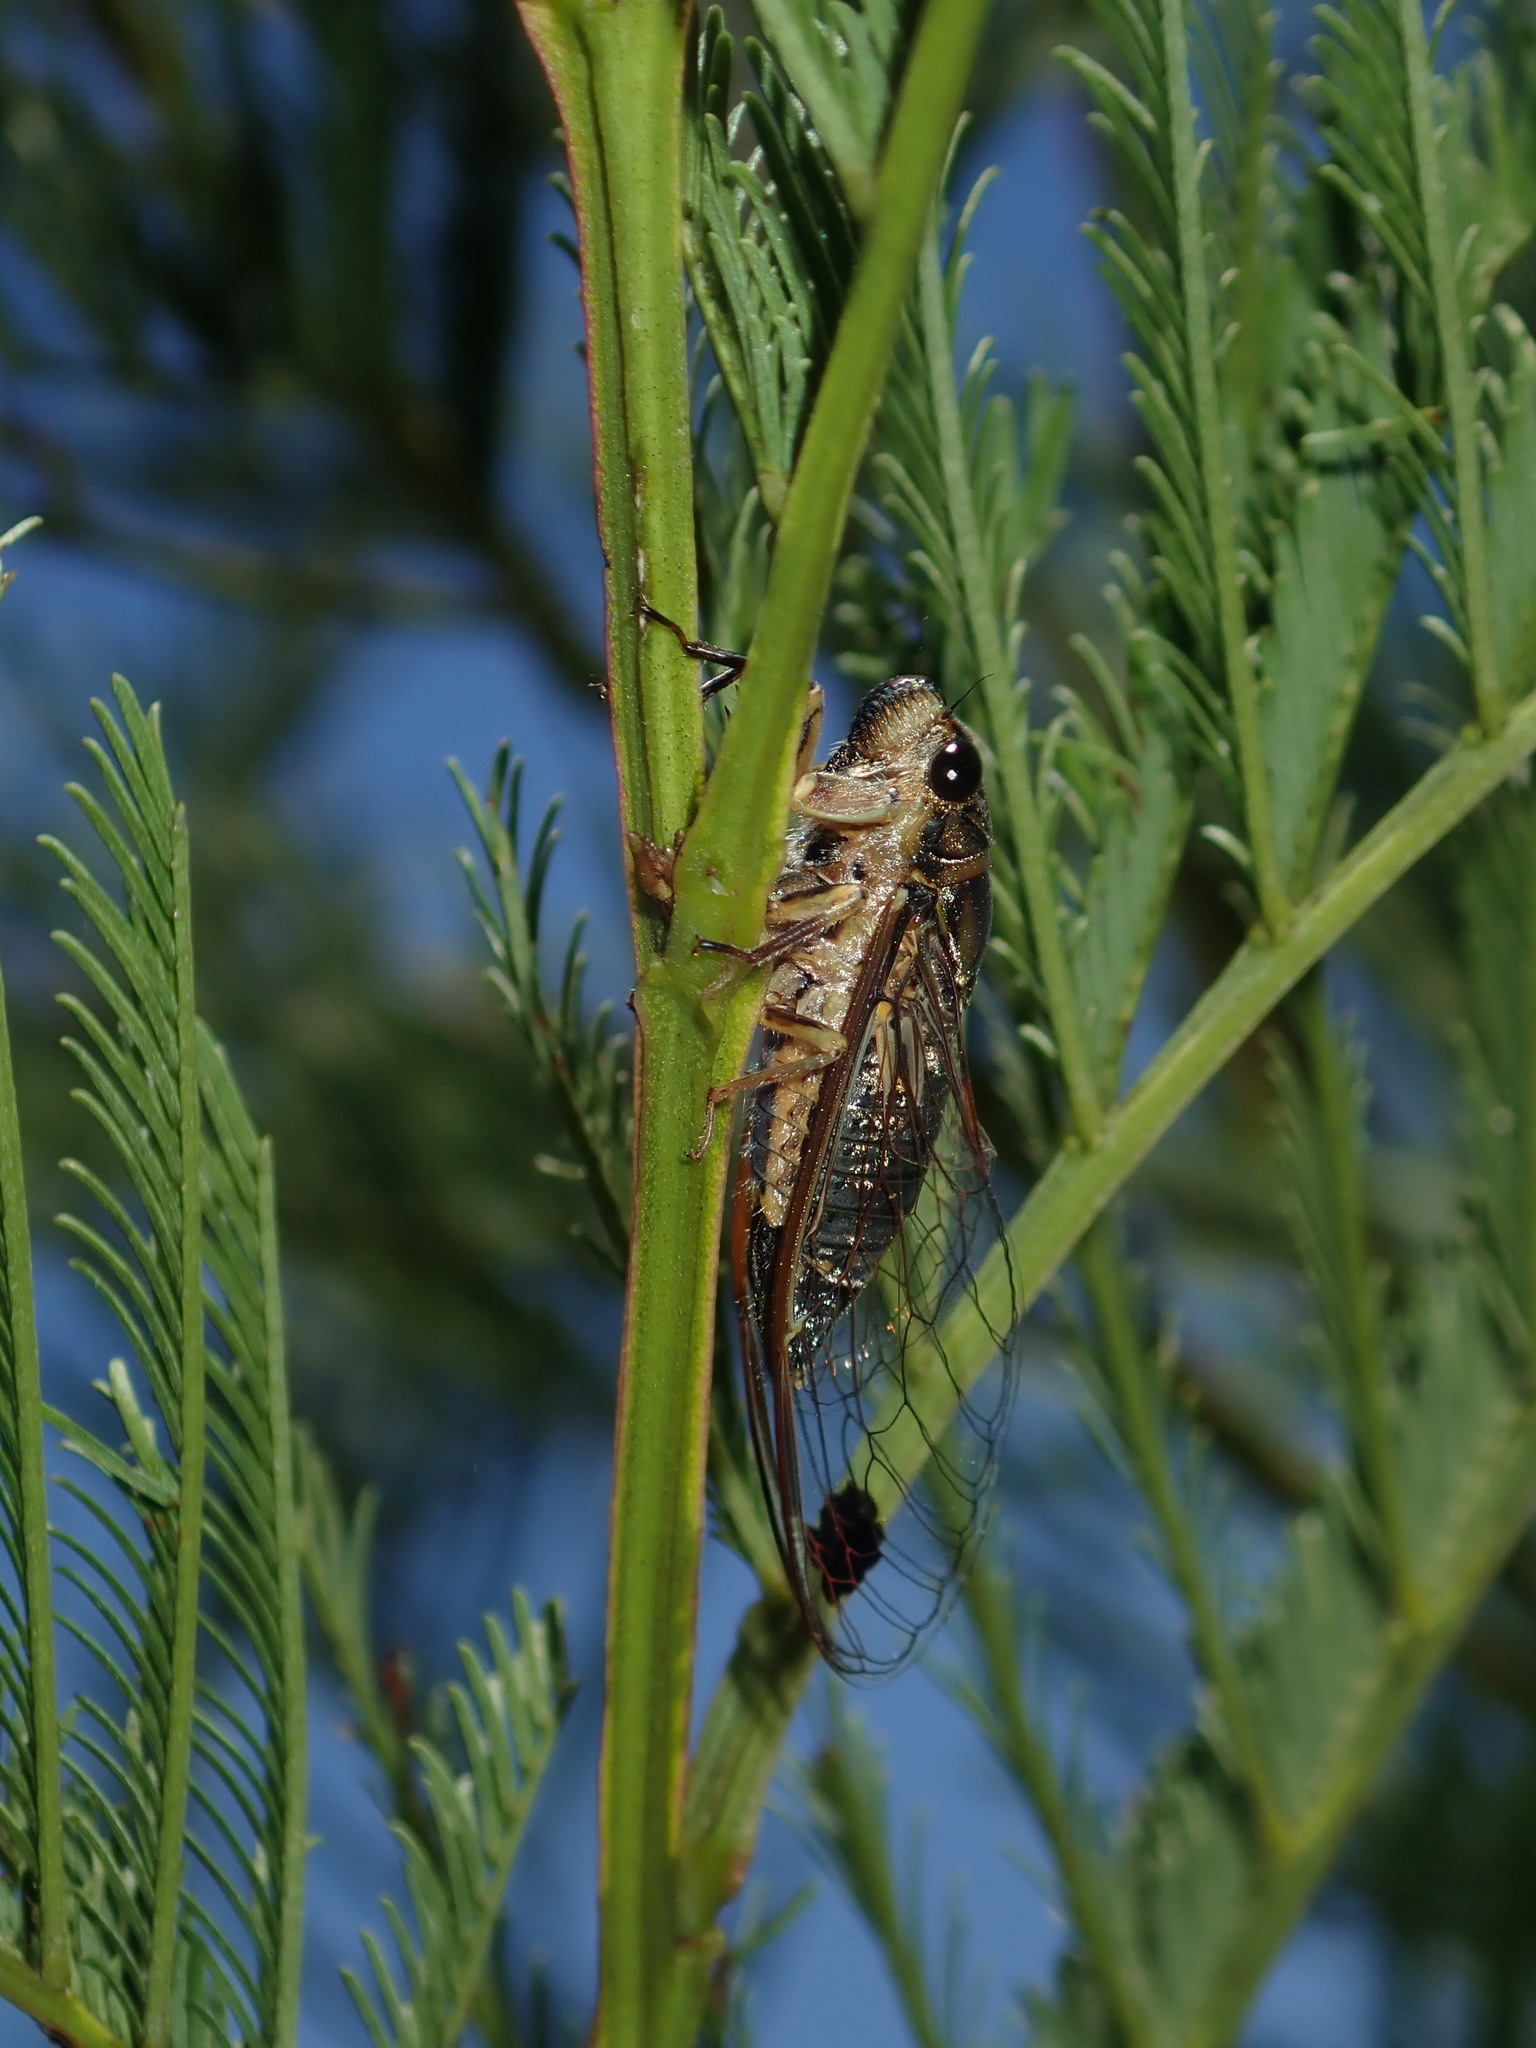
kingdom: Animalia
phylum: Arthropoda
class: Insecta
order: Hemiptera
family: Cicadidae
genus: Galanga
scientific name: Galanga labeculata
